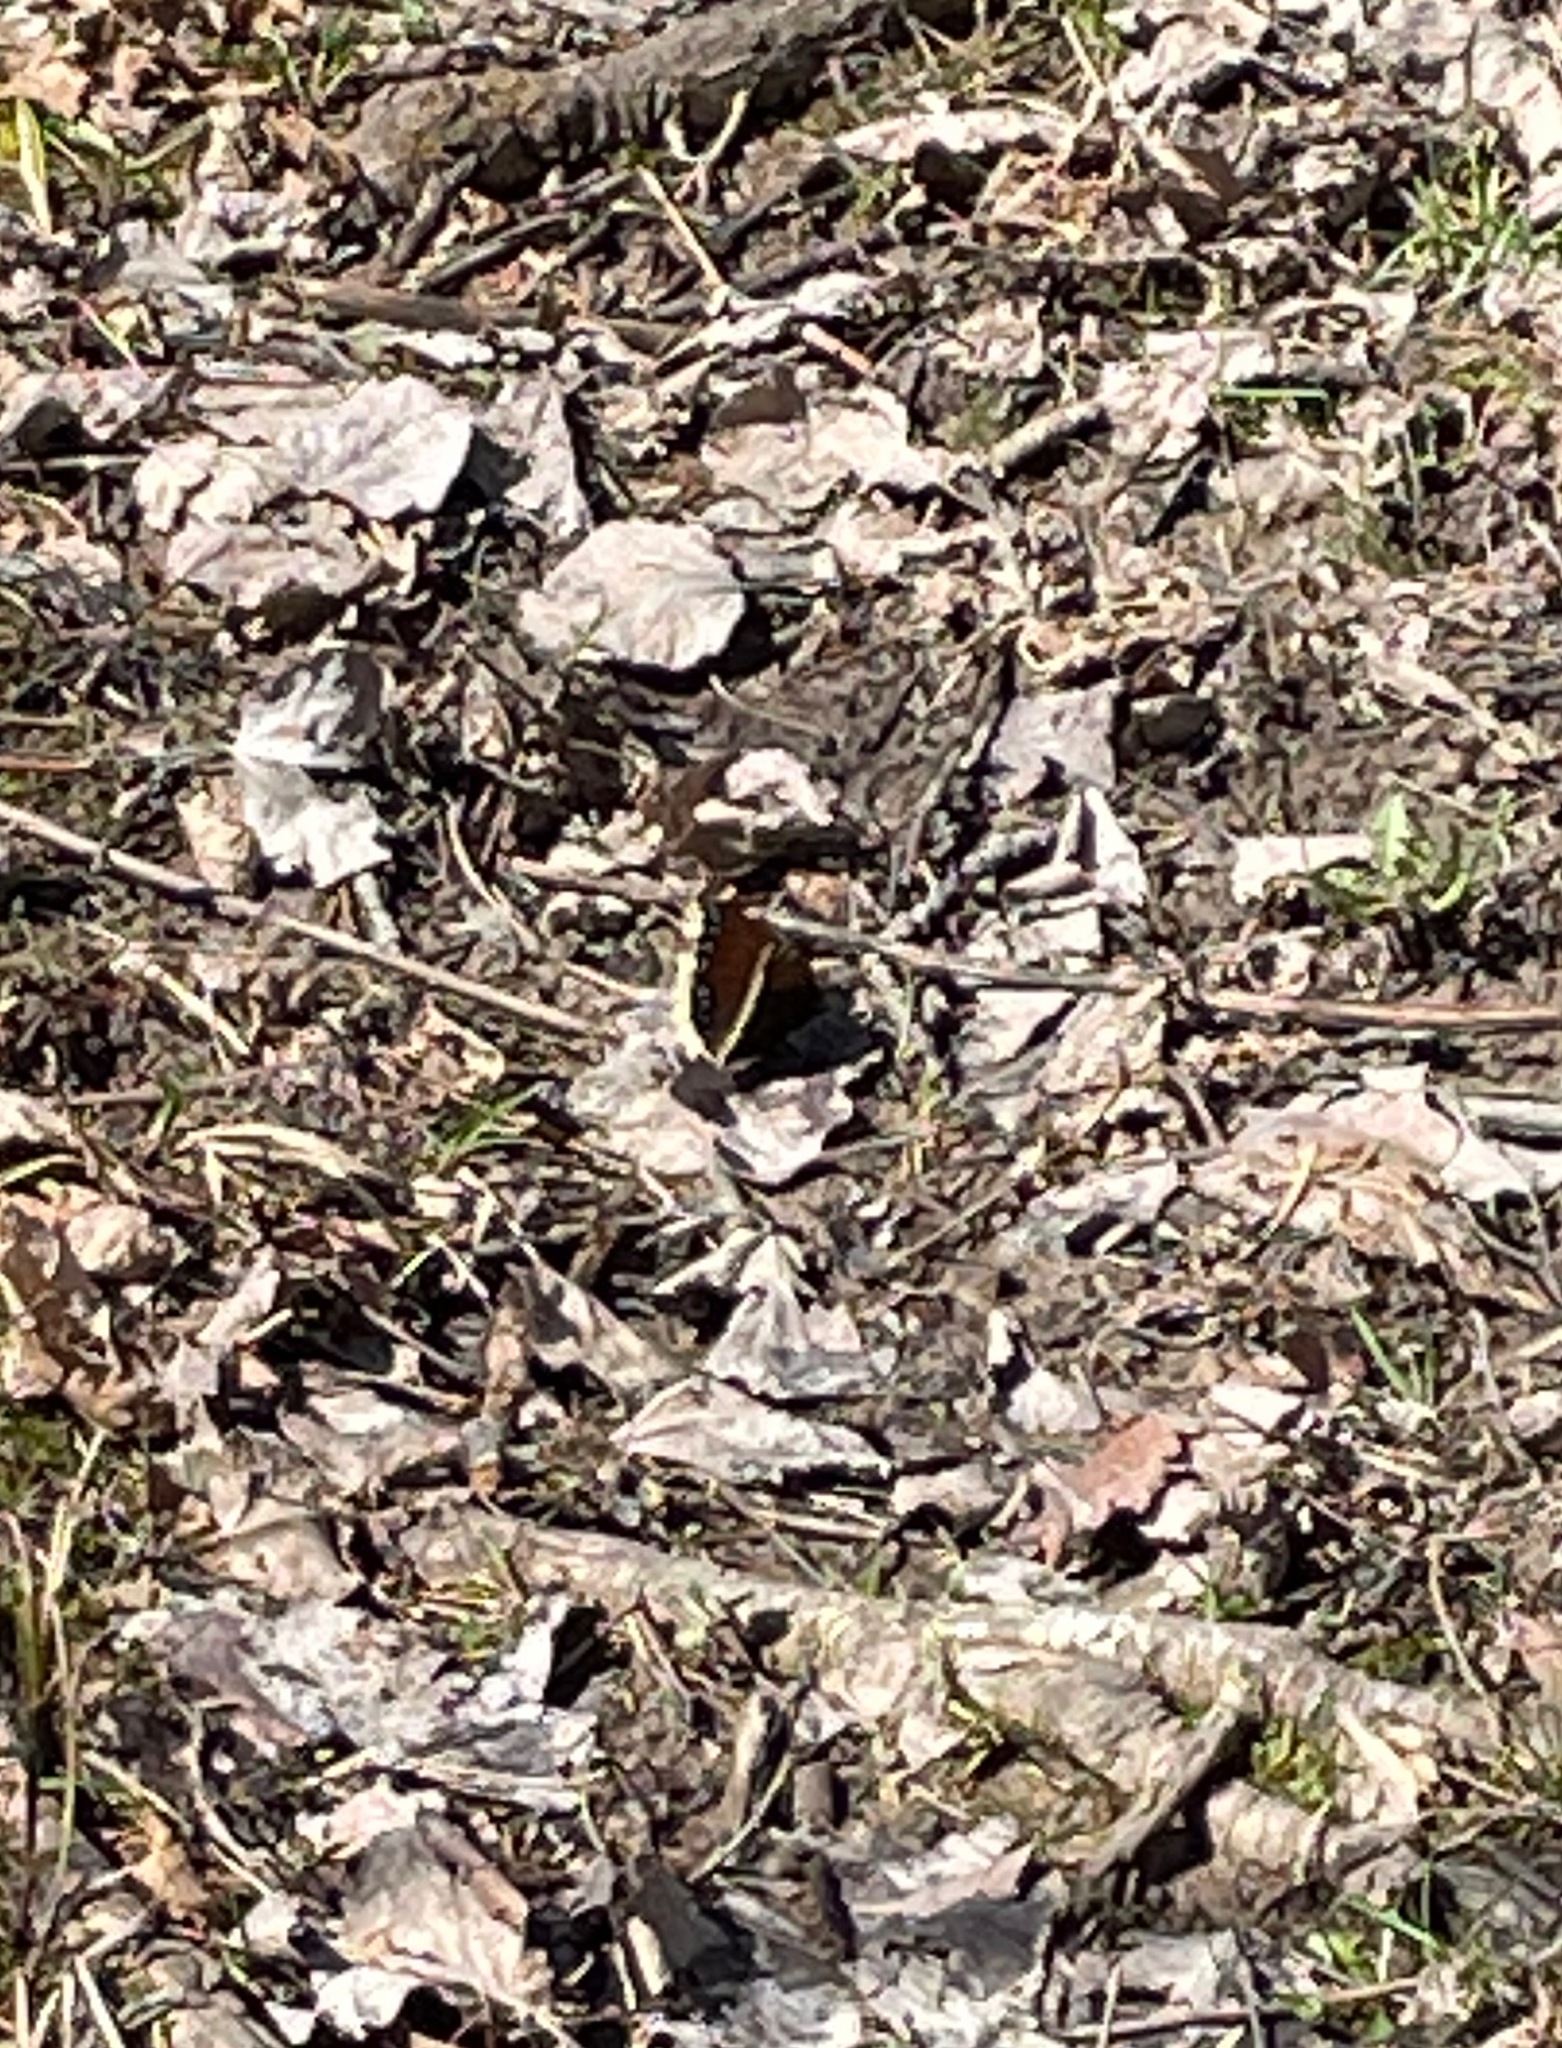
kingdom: Animalia
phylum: Arthropoda
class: Insecta
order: Lepidoptera
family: Nymphalidae
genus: Nymphalis
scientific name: Nymphalis antiopa
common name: Camberwell beauty
